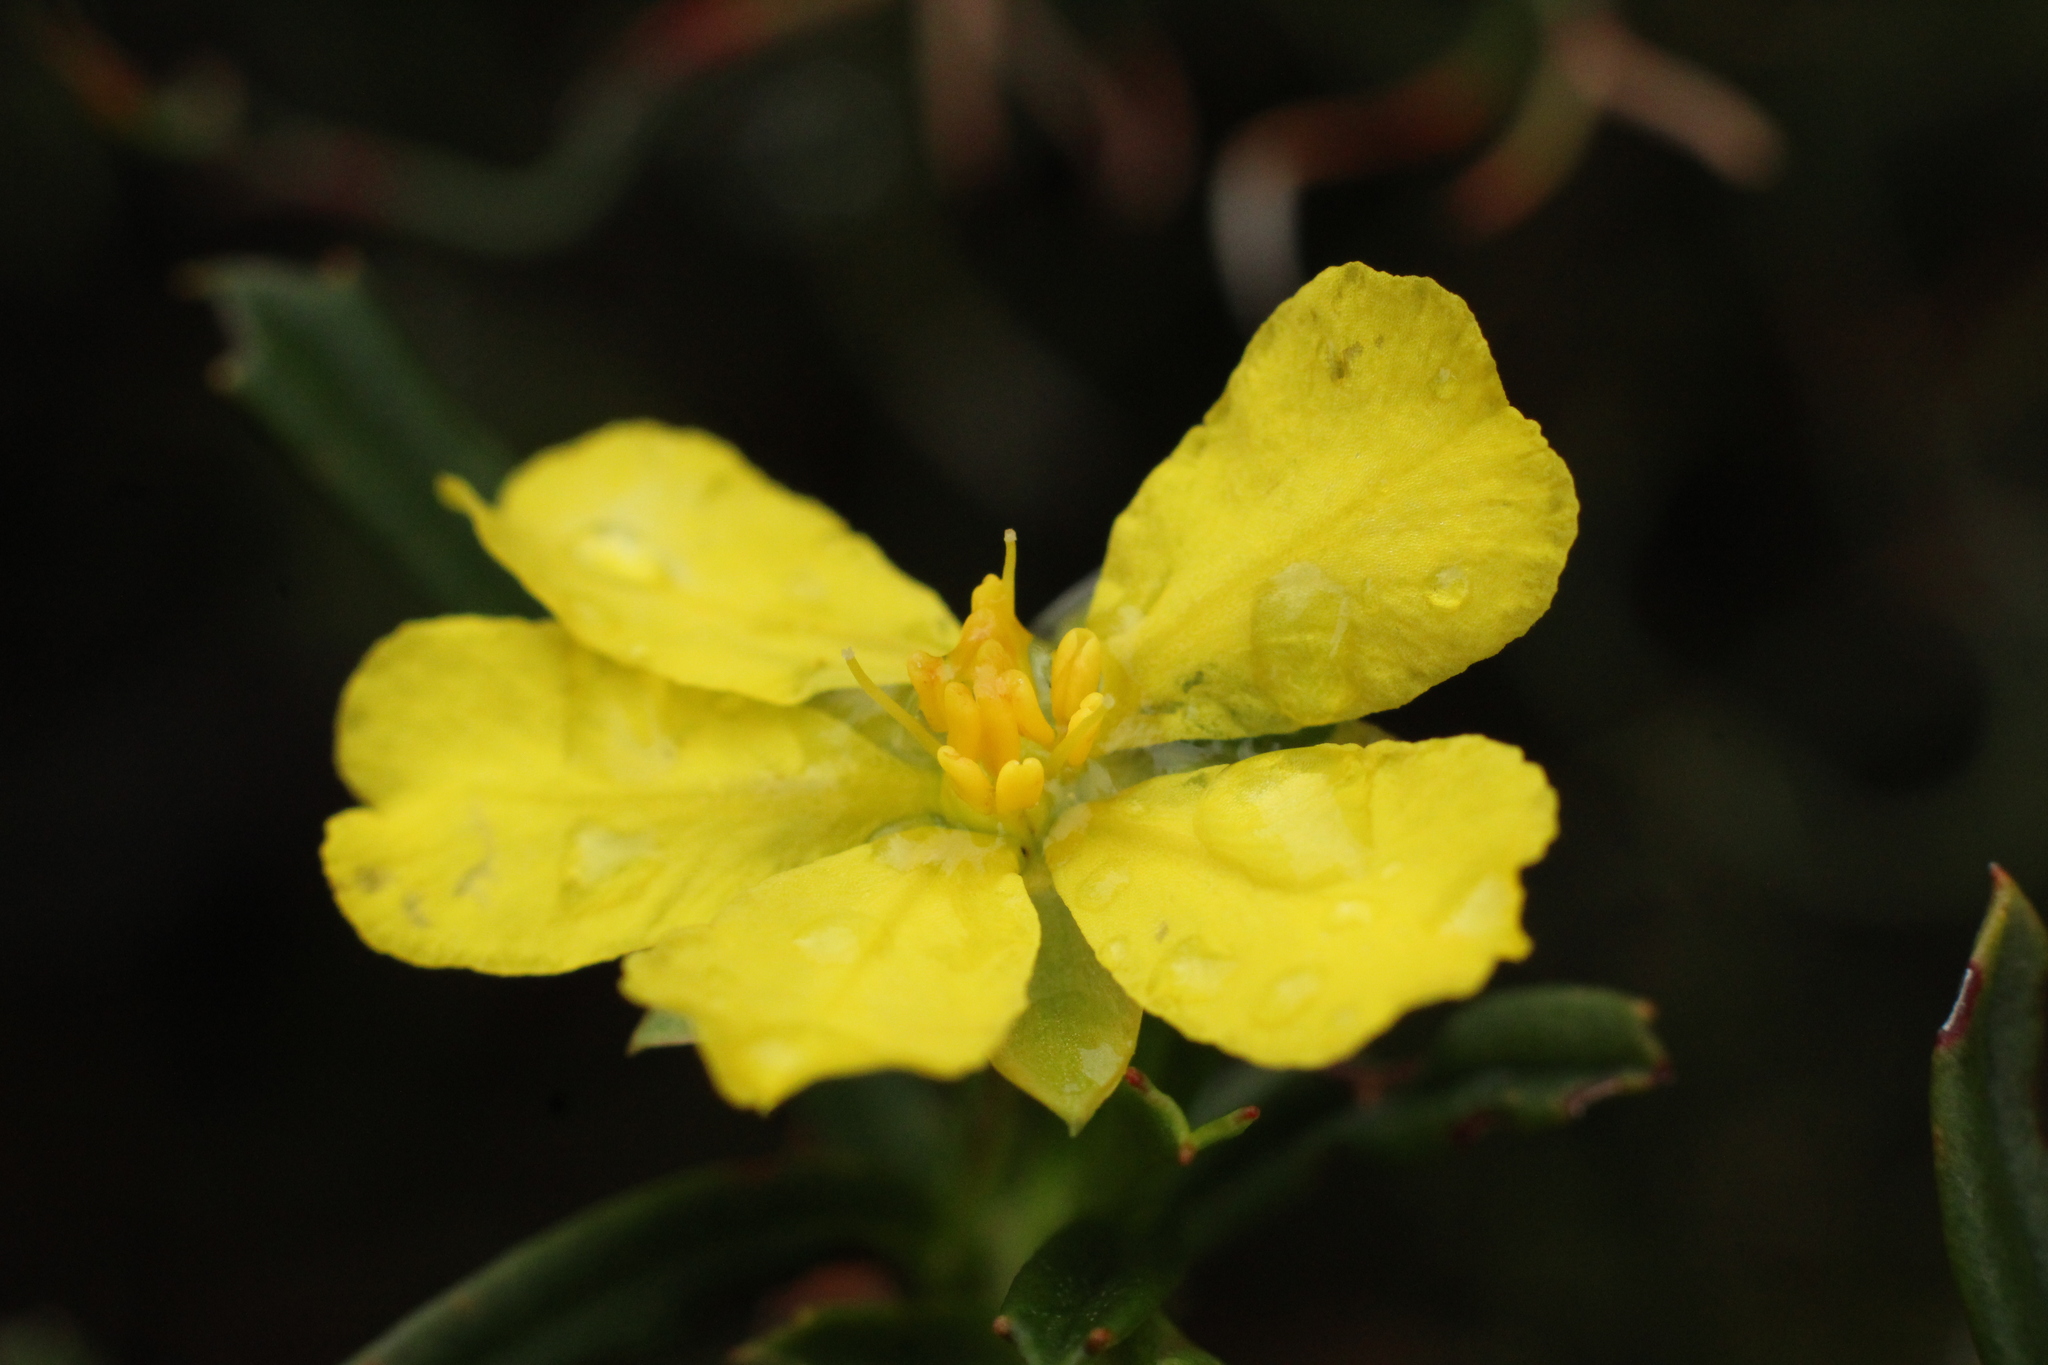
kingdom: Plantae
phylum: Tracheophyta
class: Magnoliopsida
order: Dilleniales
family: Dilleniaceae
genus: Hibbertia
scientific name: Hibbertia racemosa
